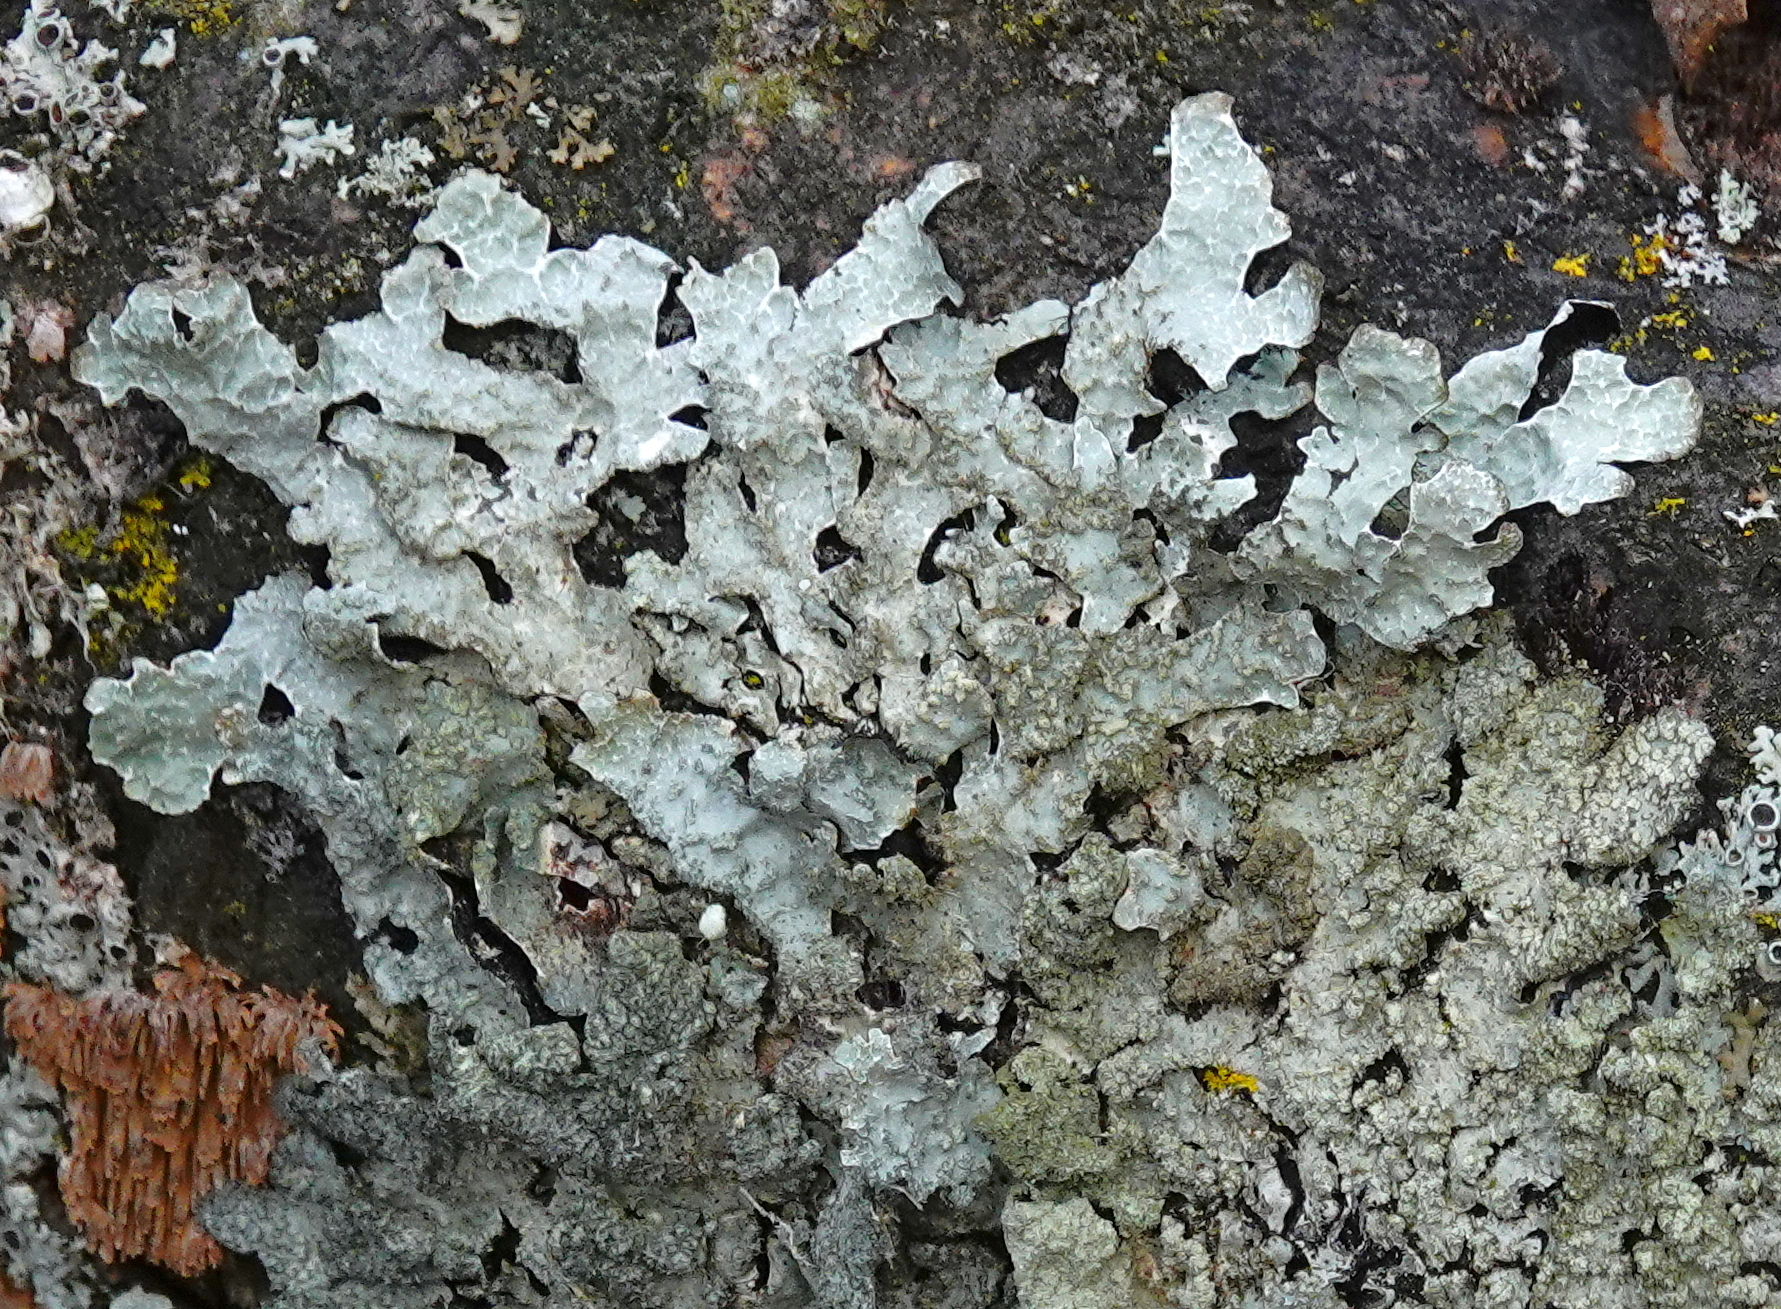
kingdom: Fungi
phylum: Ascomycota
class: Lecanoromycetes
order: Lecanorales
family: Parmeliaceae
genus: Parmelia
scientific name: Parmelia sulcata
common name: Netted shield lichen
